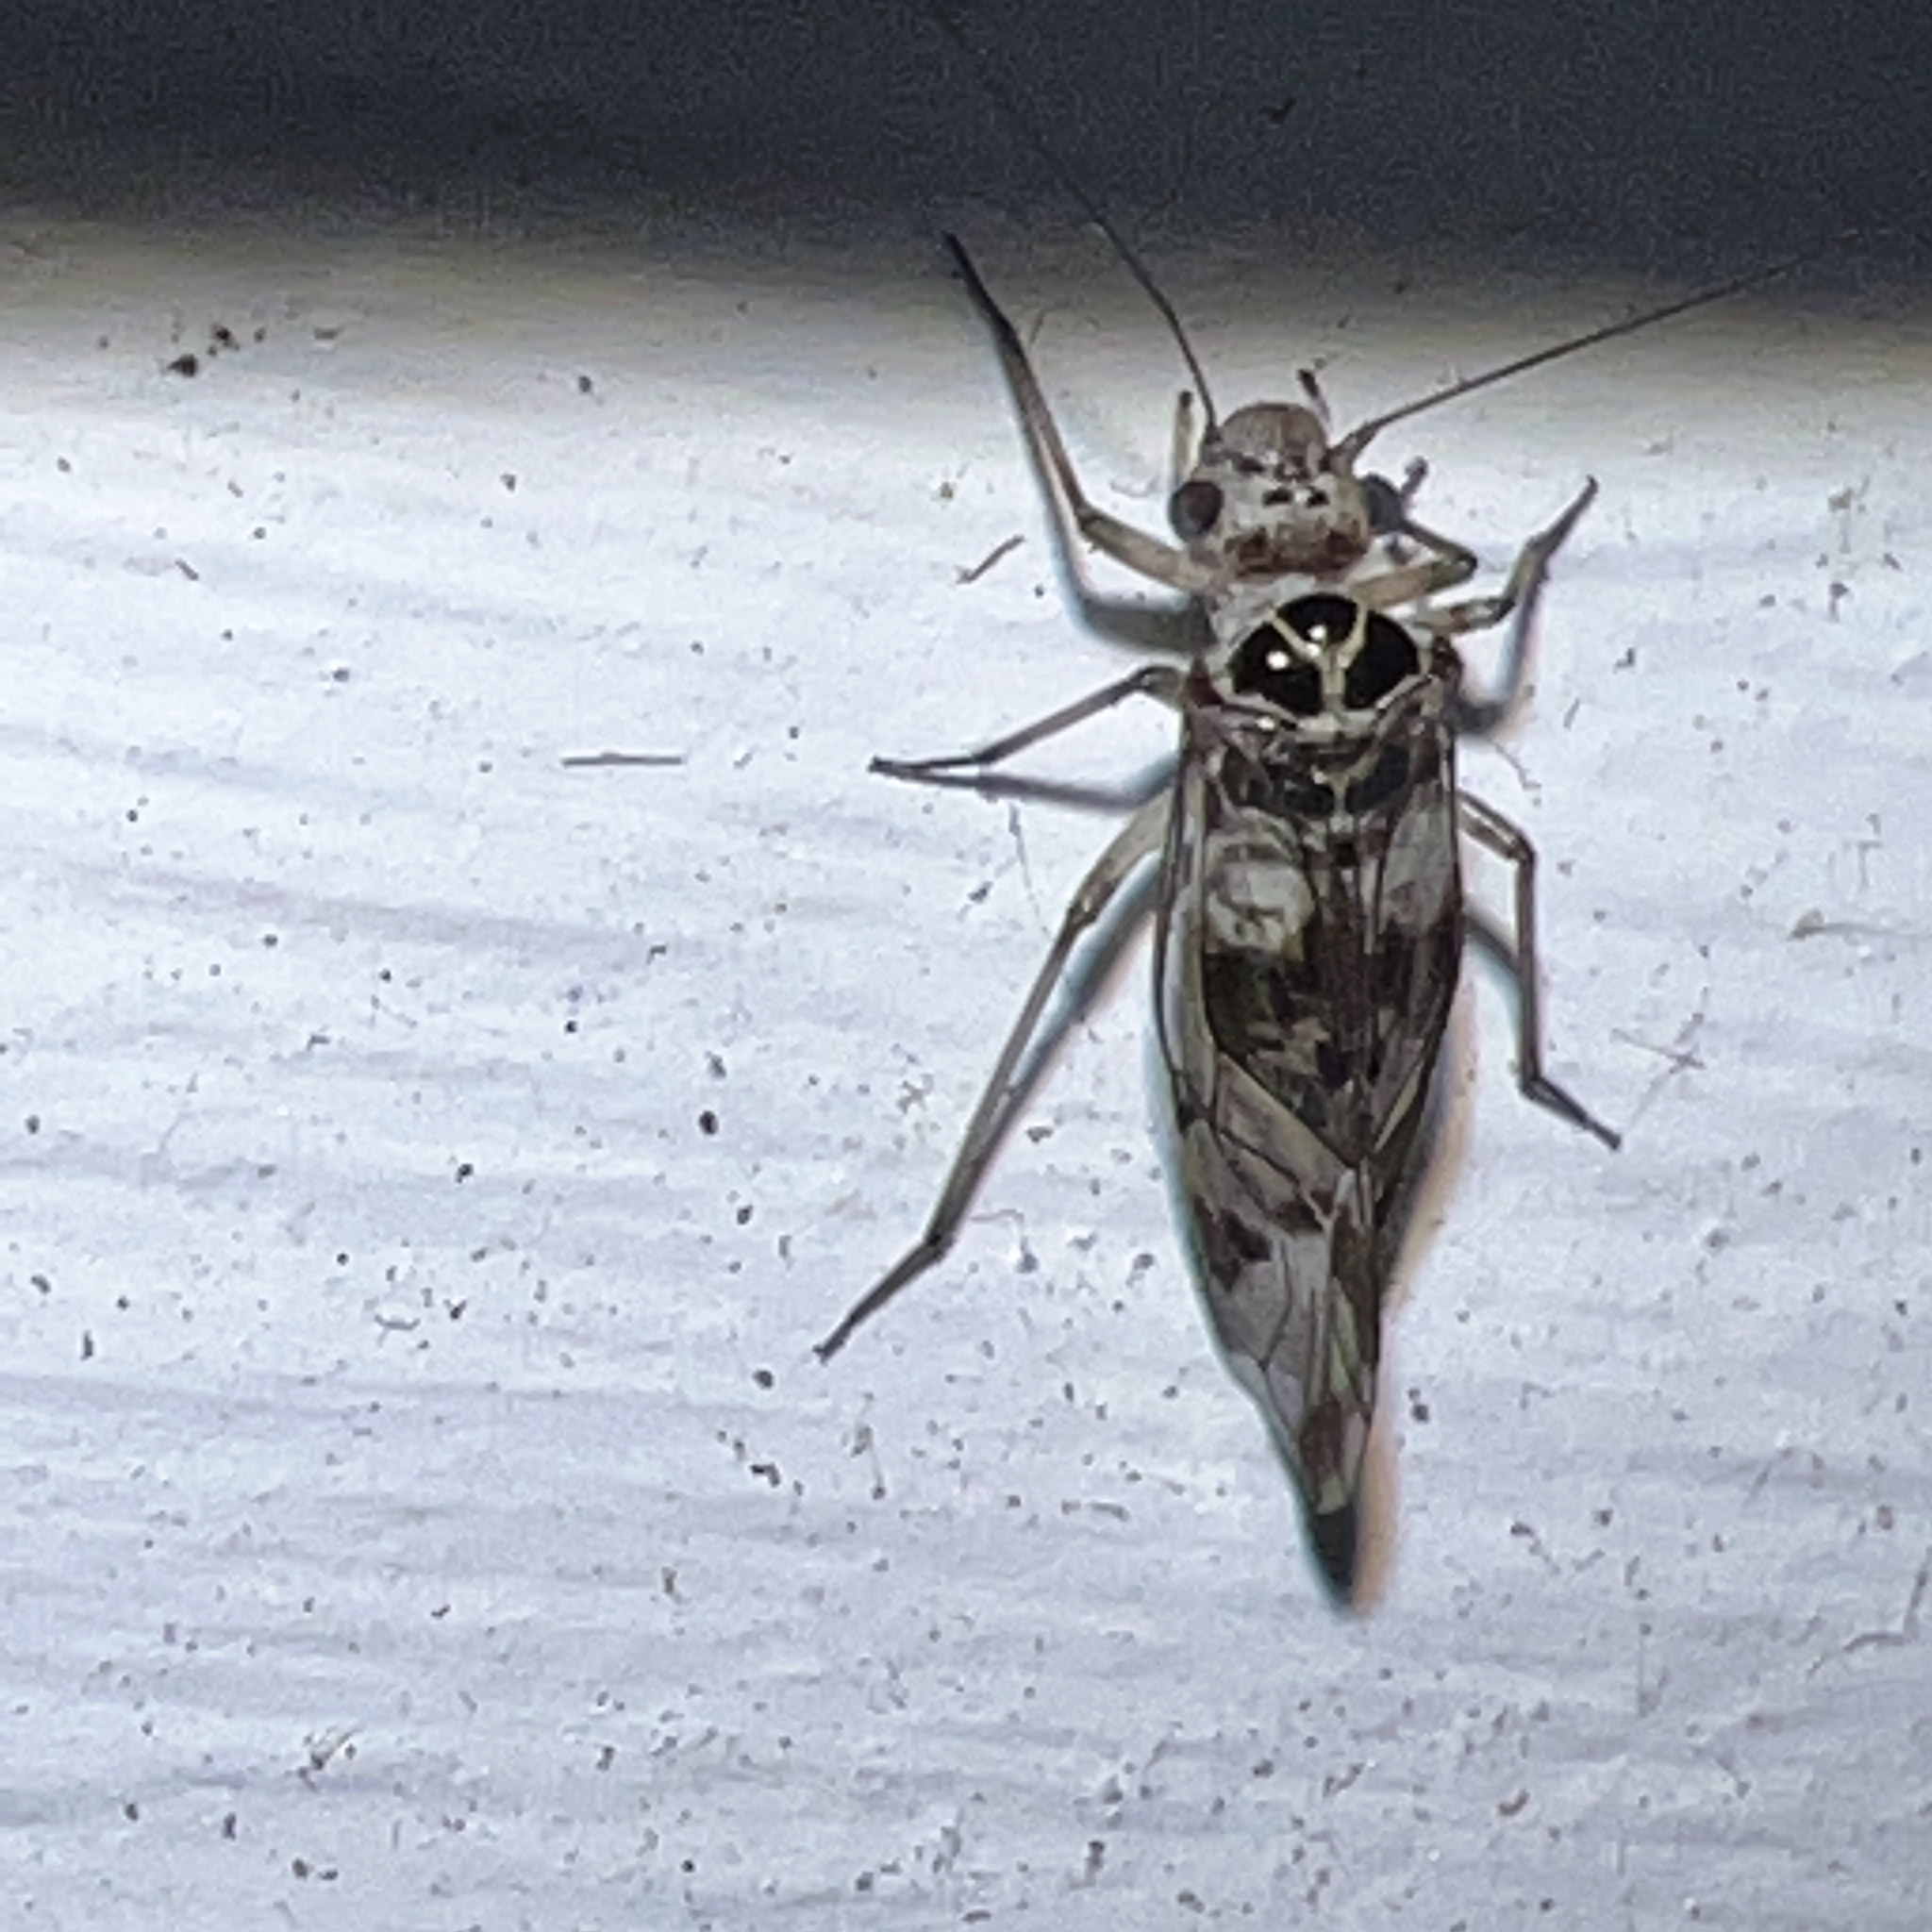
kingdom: Animalia
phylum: Arthropoda
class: Insecta
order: Psocodea
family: Psocidae
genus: Metylophorus
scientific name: Metylophorus novaescotiae
